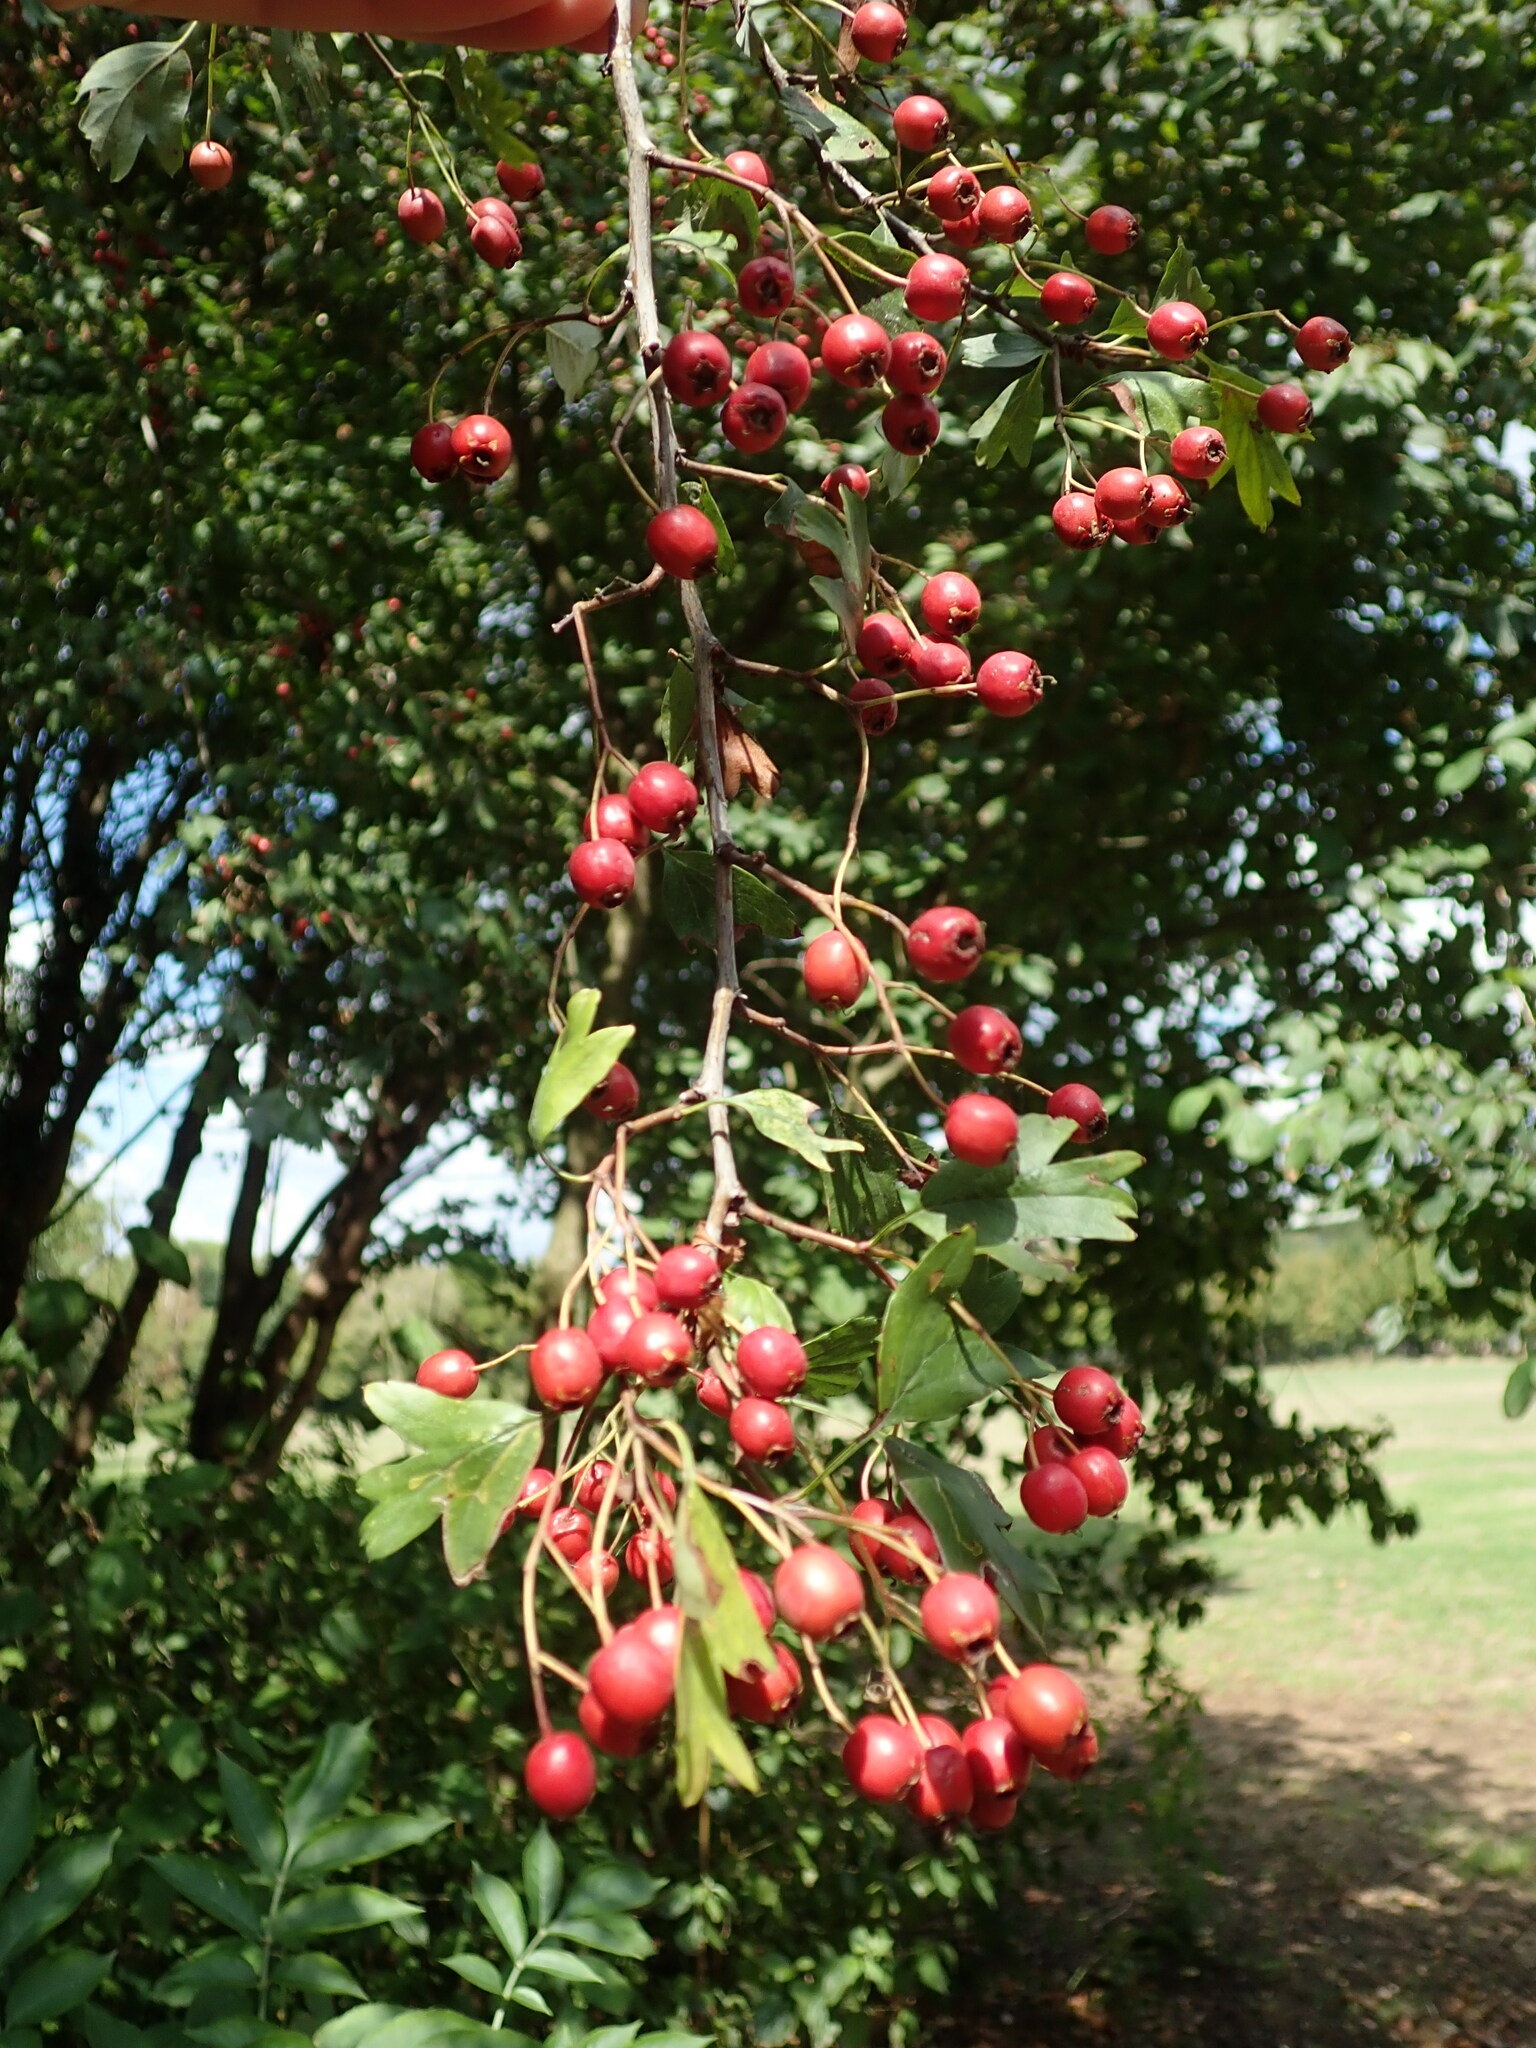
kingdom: Plantae
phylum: Tracheophyta
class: Magnoliopsida
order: Rosales
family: Rosaceae
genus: Crataegus
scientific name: Crataegus monogyna
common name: Hawthorn
